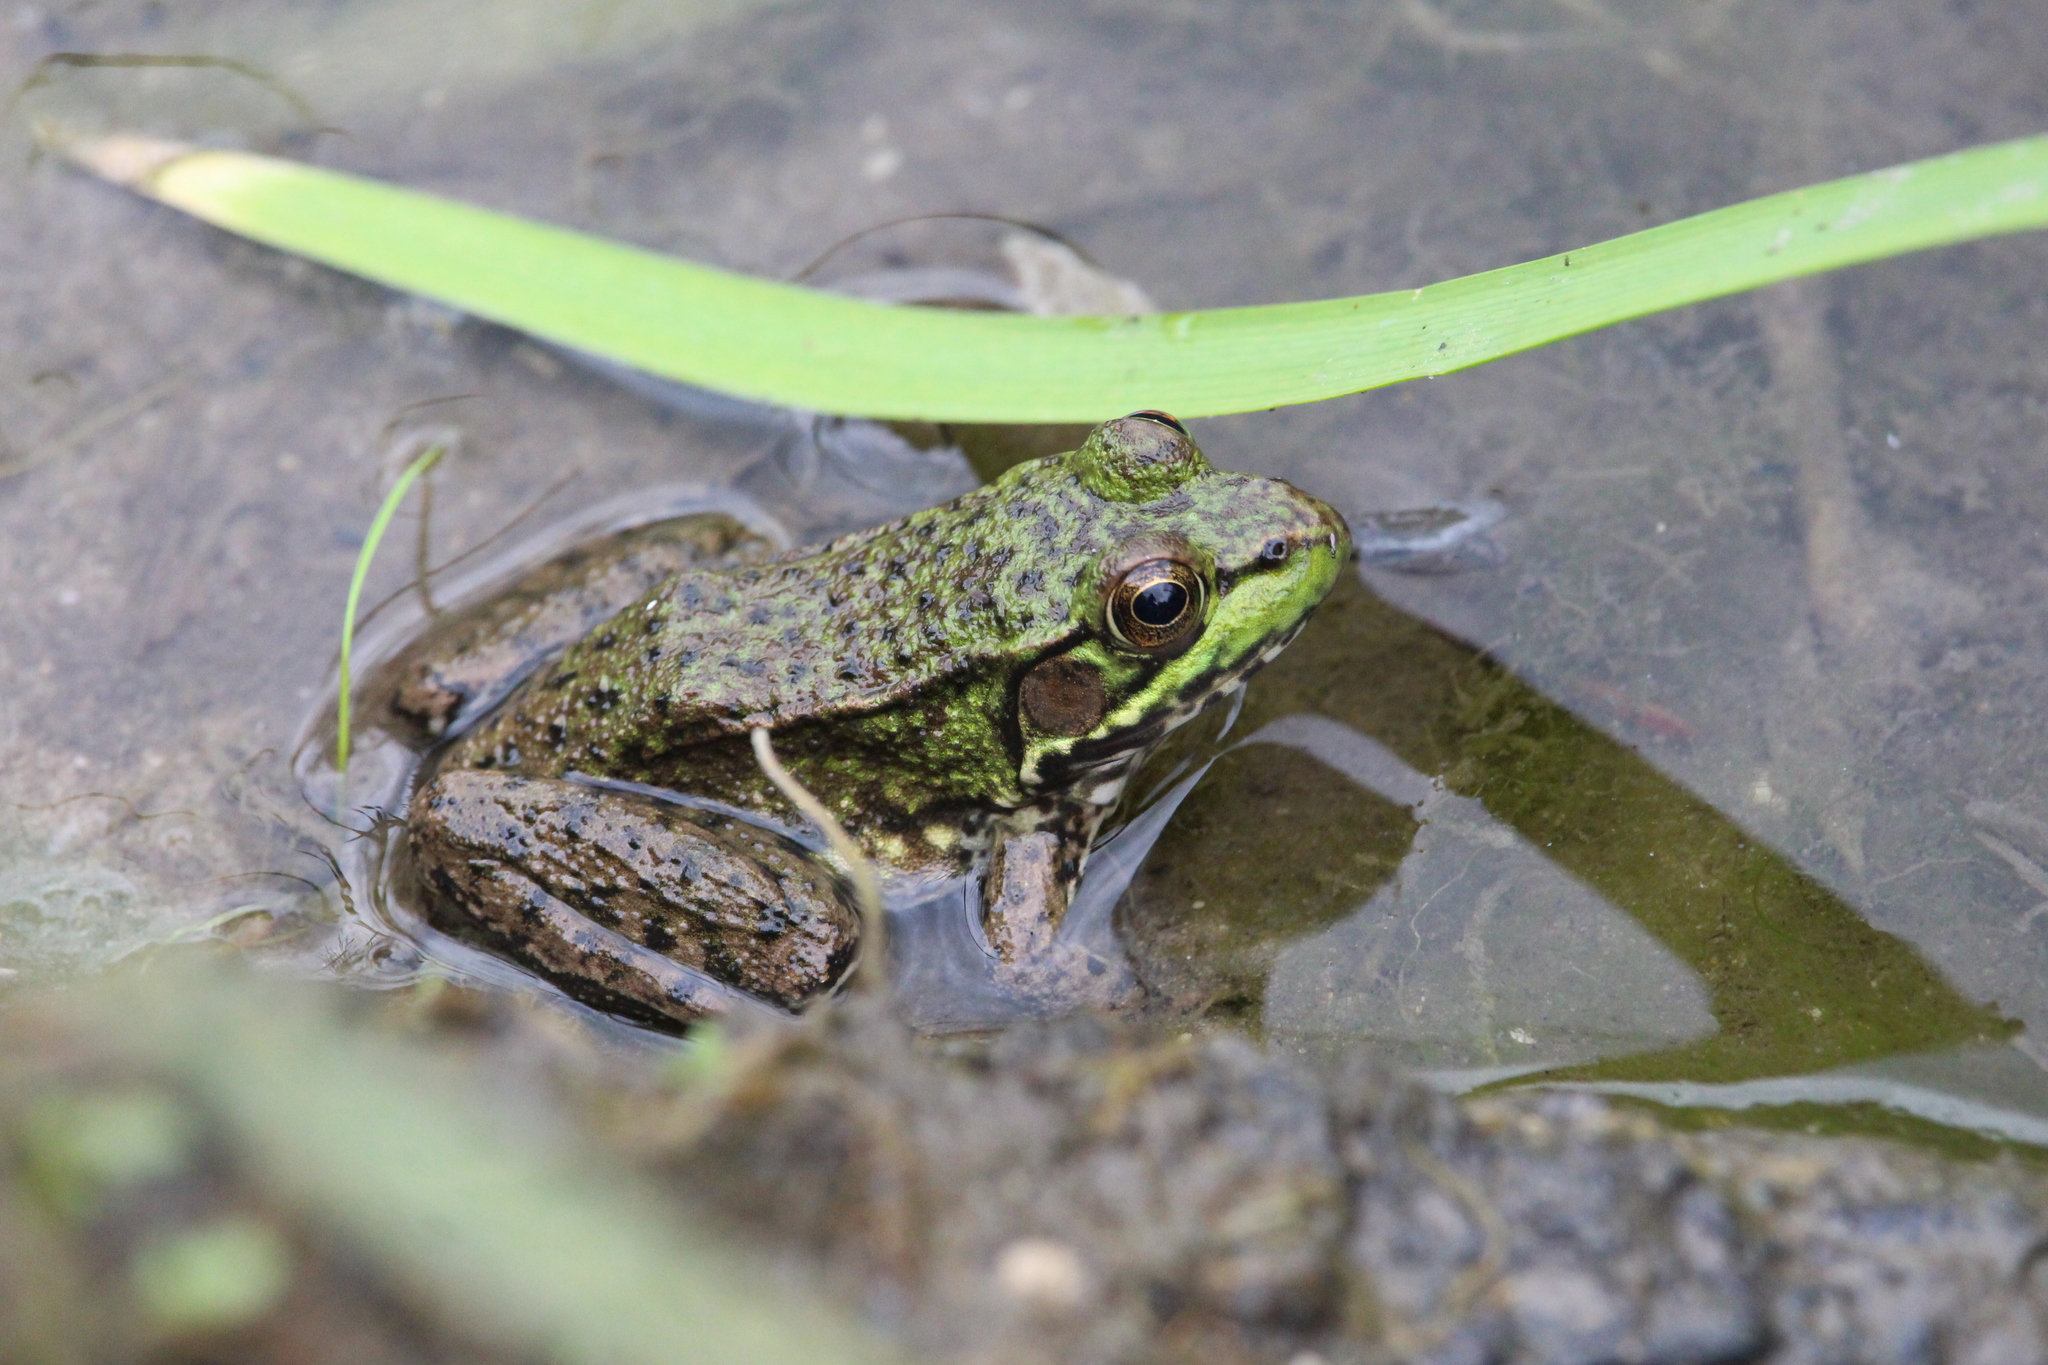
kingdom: Animalia
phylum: Chordata
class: Amphibia
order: Anura
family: Ranidae
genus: Lithobates
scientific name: Lithobates clamitans
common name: Green frog
